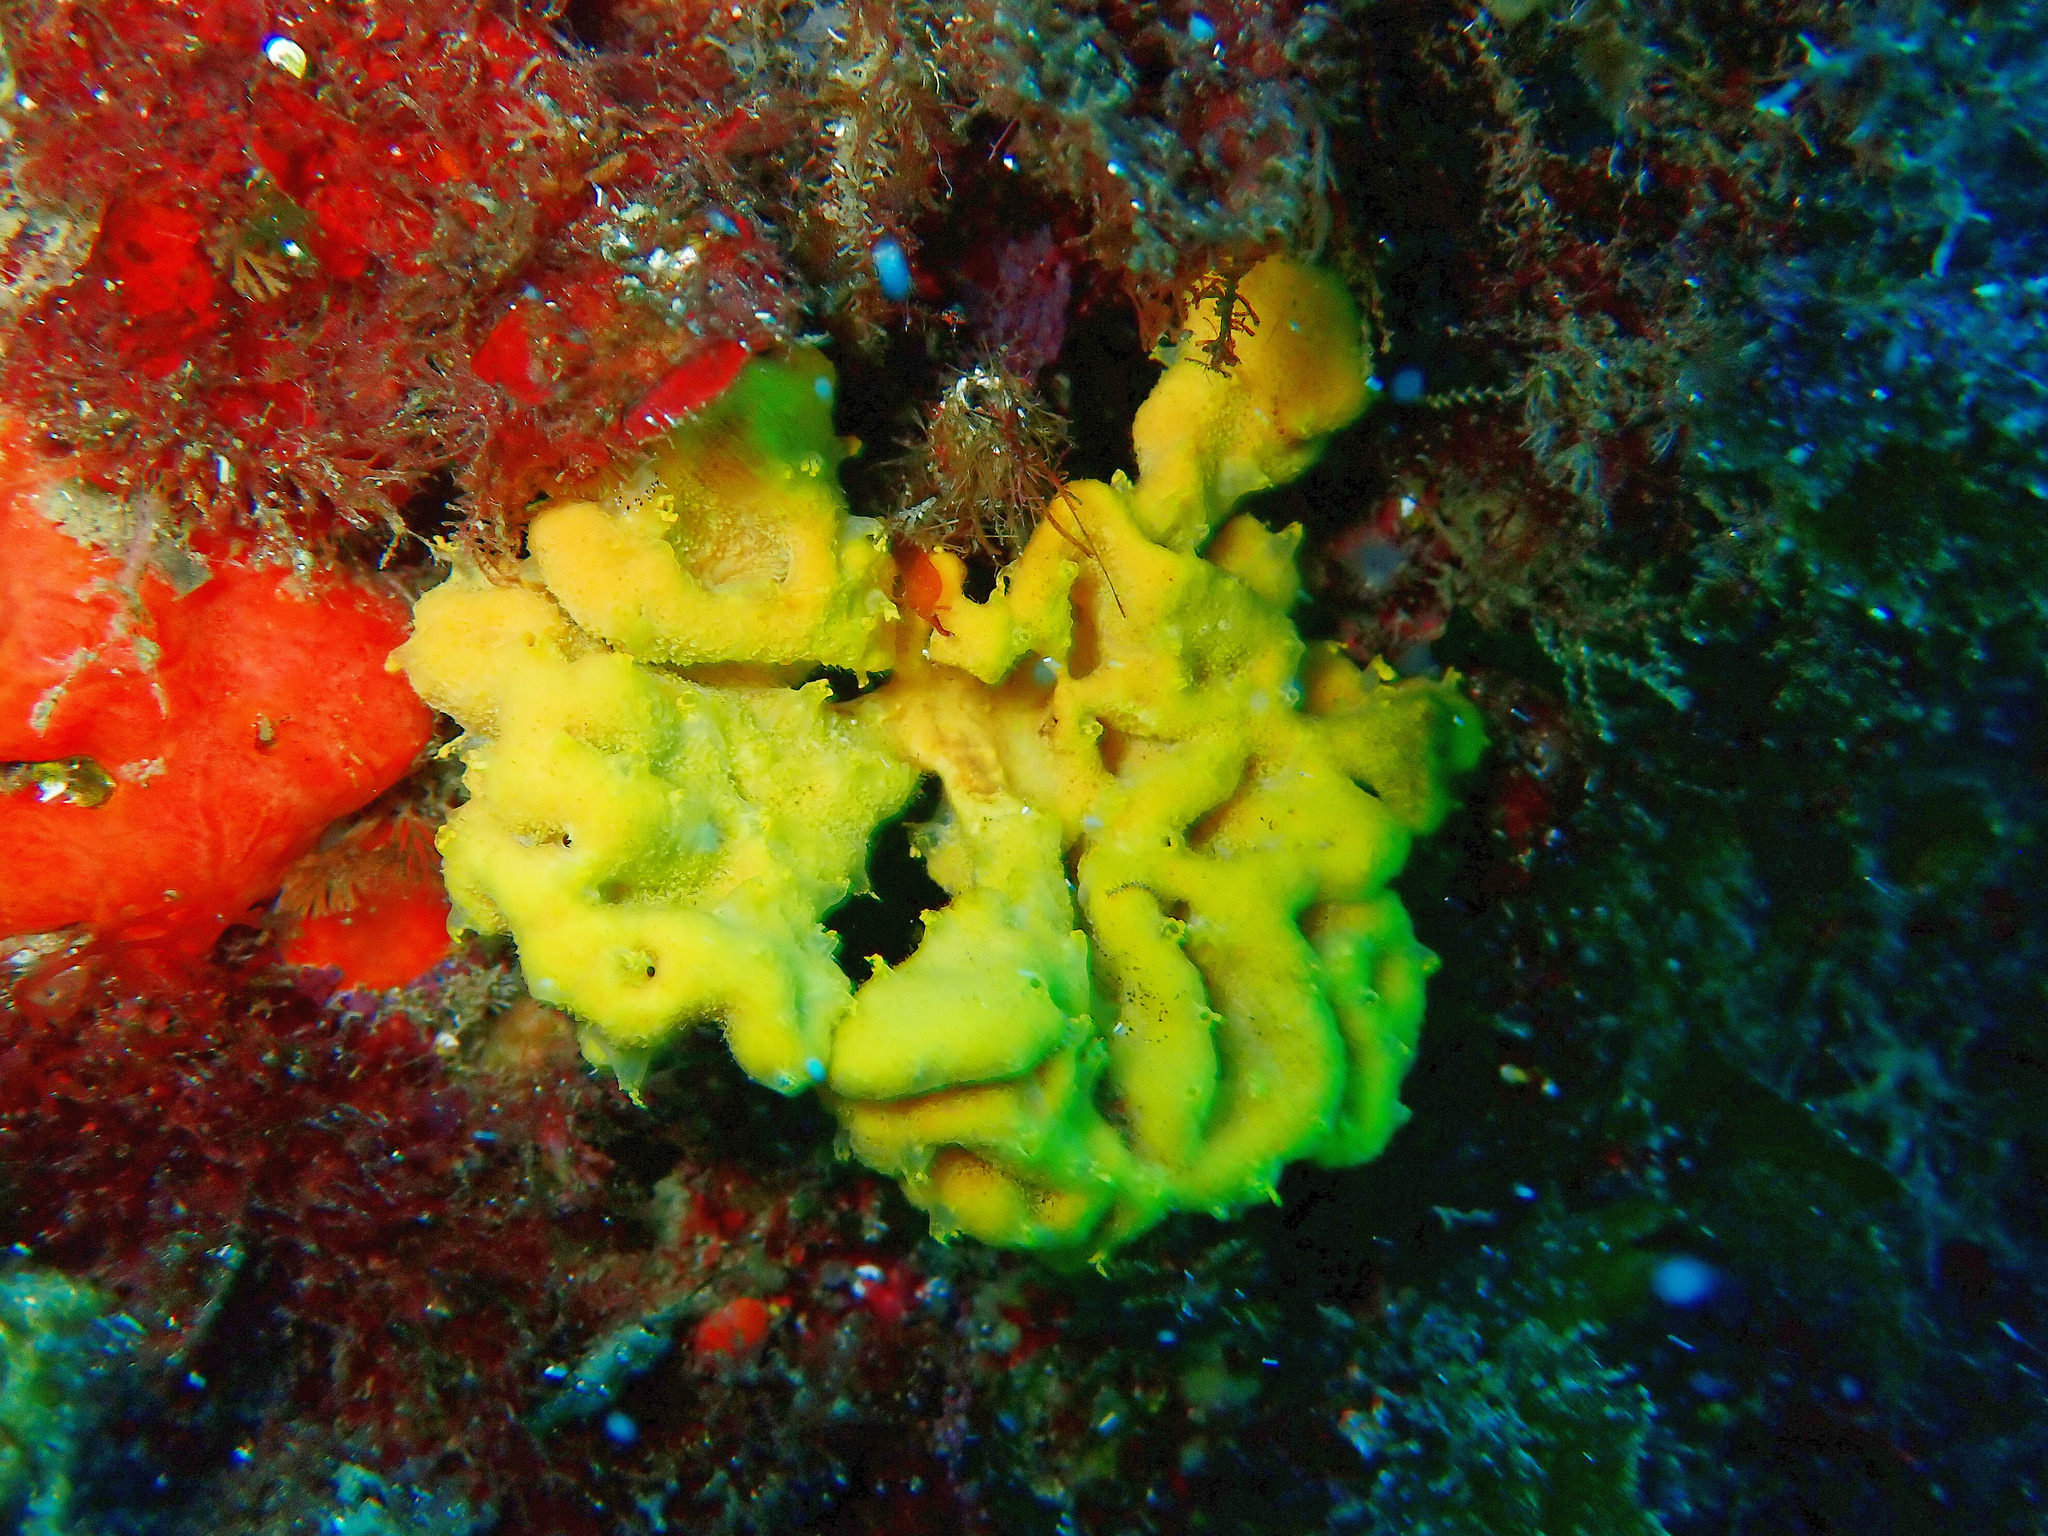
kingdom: Animalia
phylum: Porifera
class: Demospongiae
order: Axinellida
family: Axinellidae
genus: Axinella
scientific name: Axinella damicornis
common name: Crumpled duster sponge
